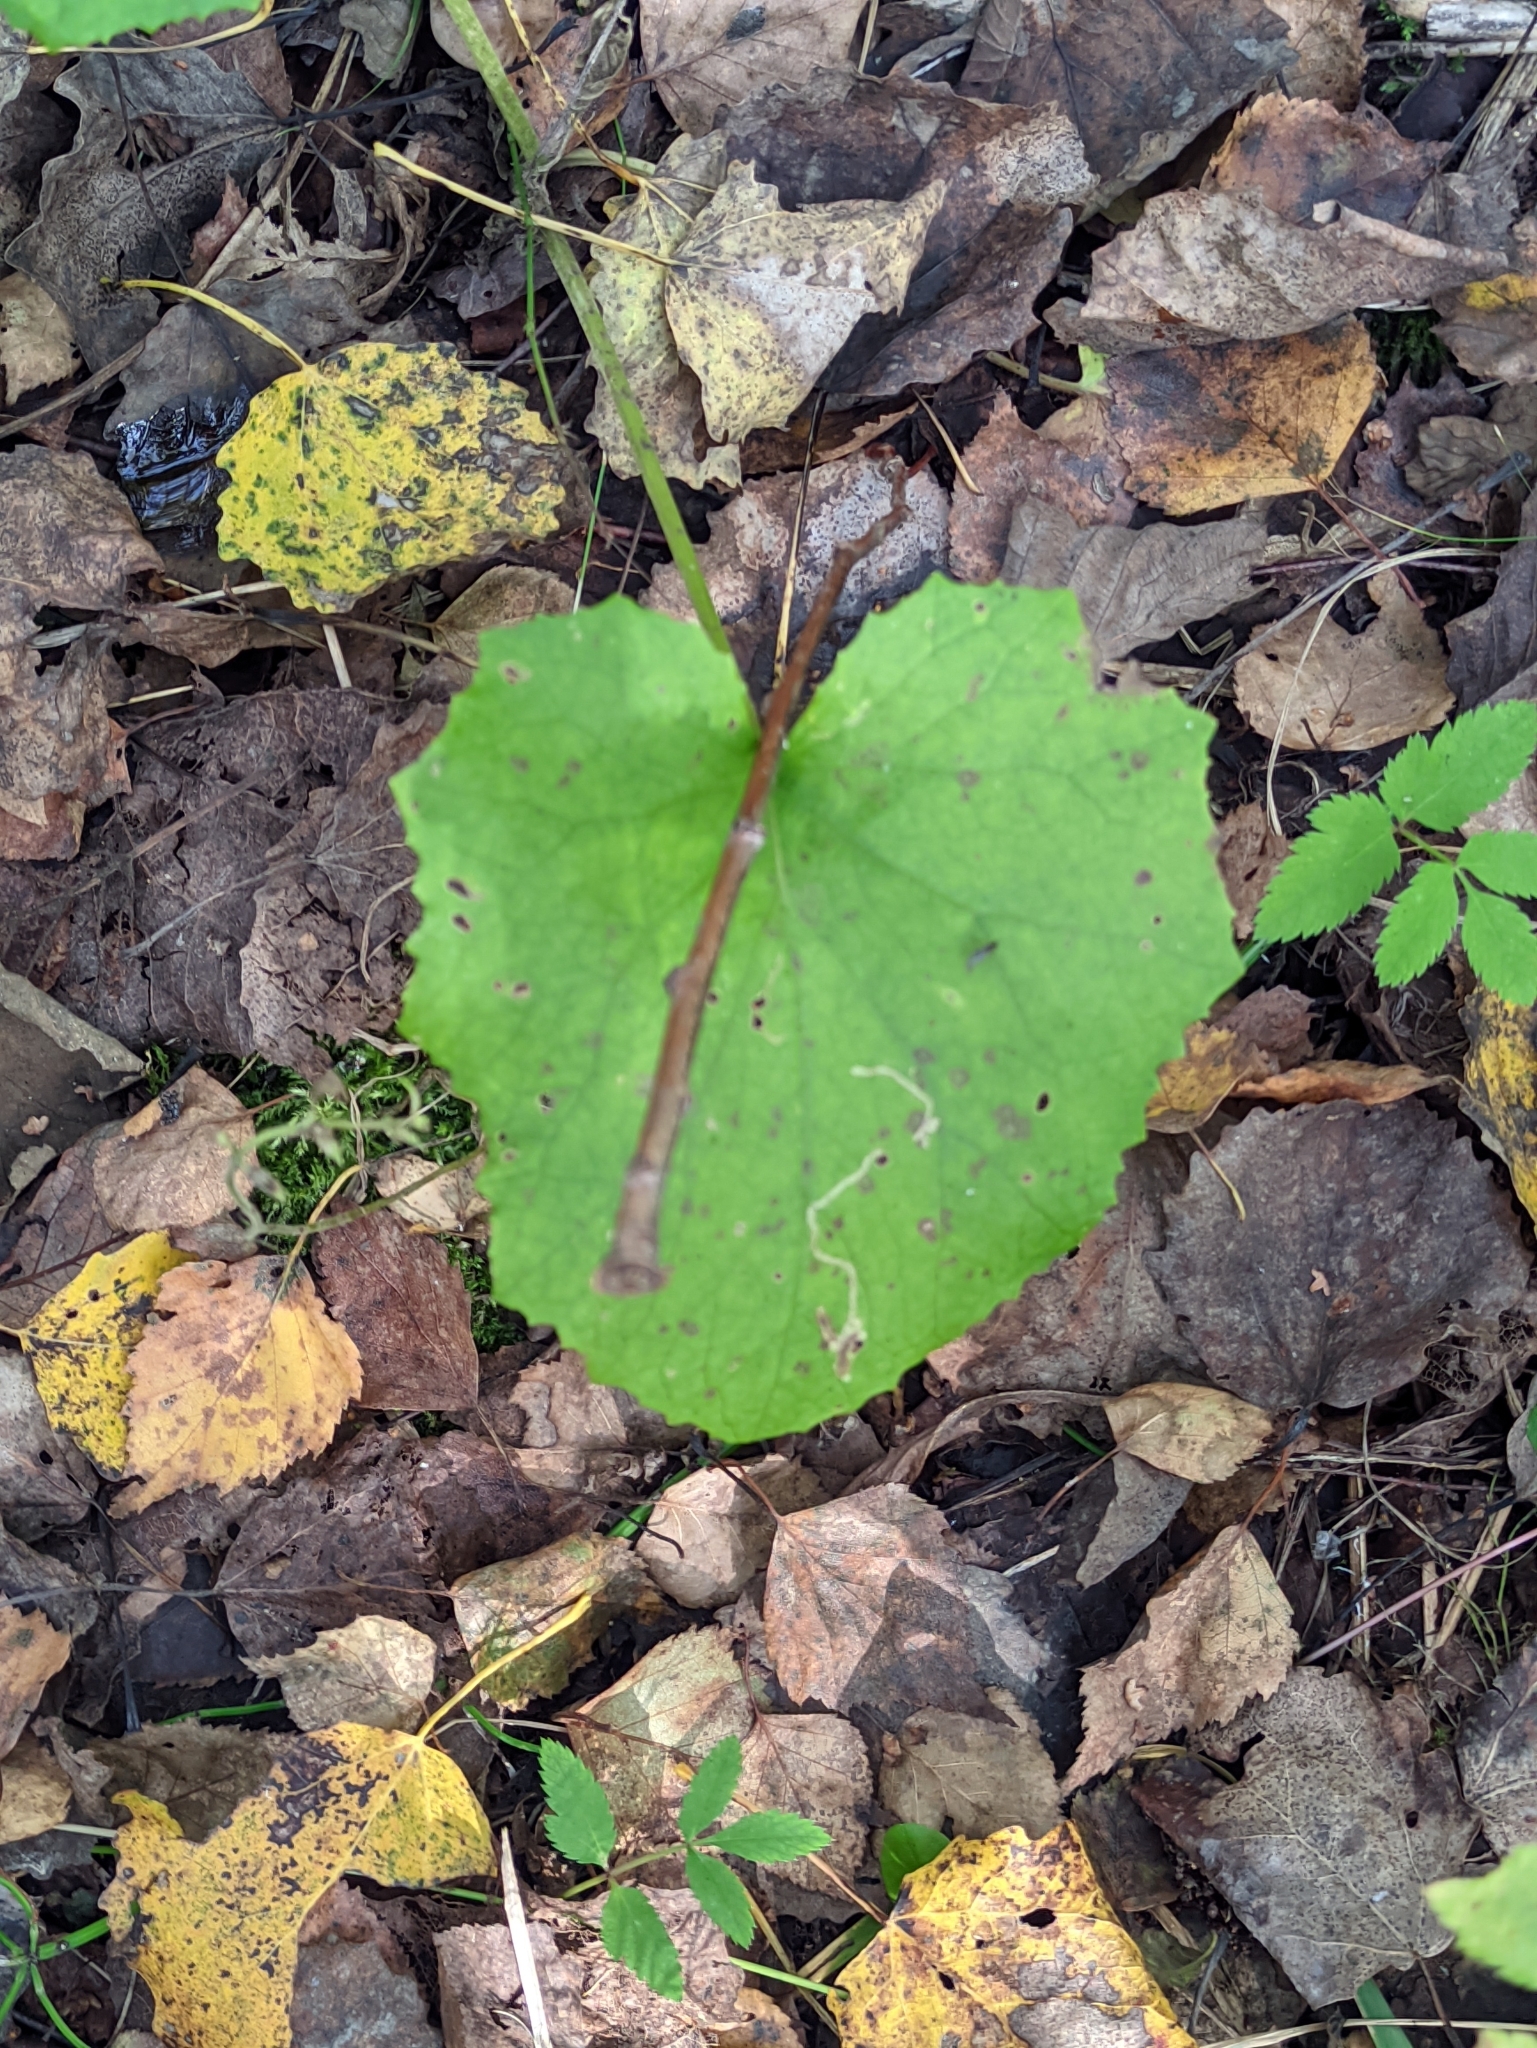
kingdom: Plantae
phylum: Tracheophyta
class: Magnoliopsida
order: Asterales
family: Asteraceae
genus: Tussilago
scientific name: Tussilago farfara
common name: Coltsfoot
